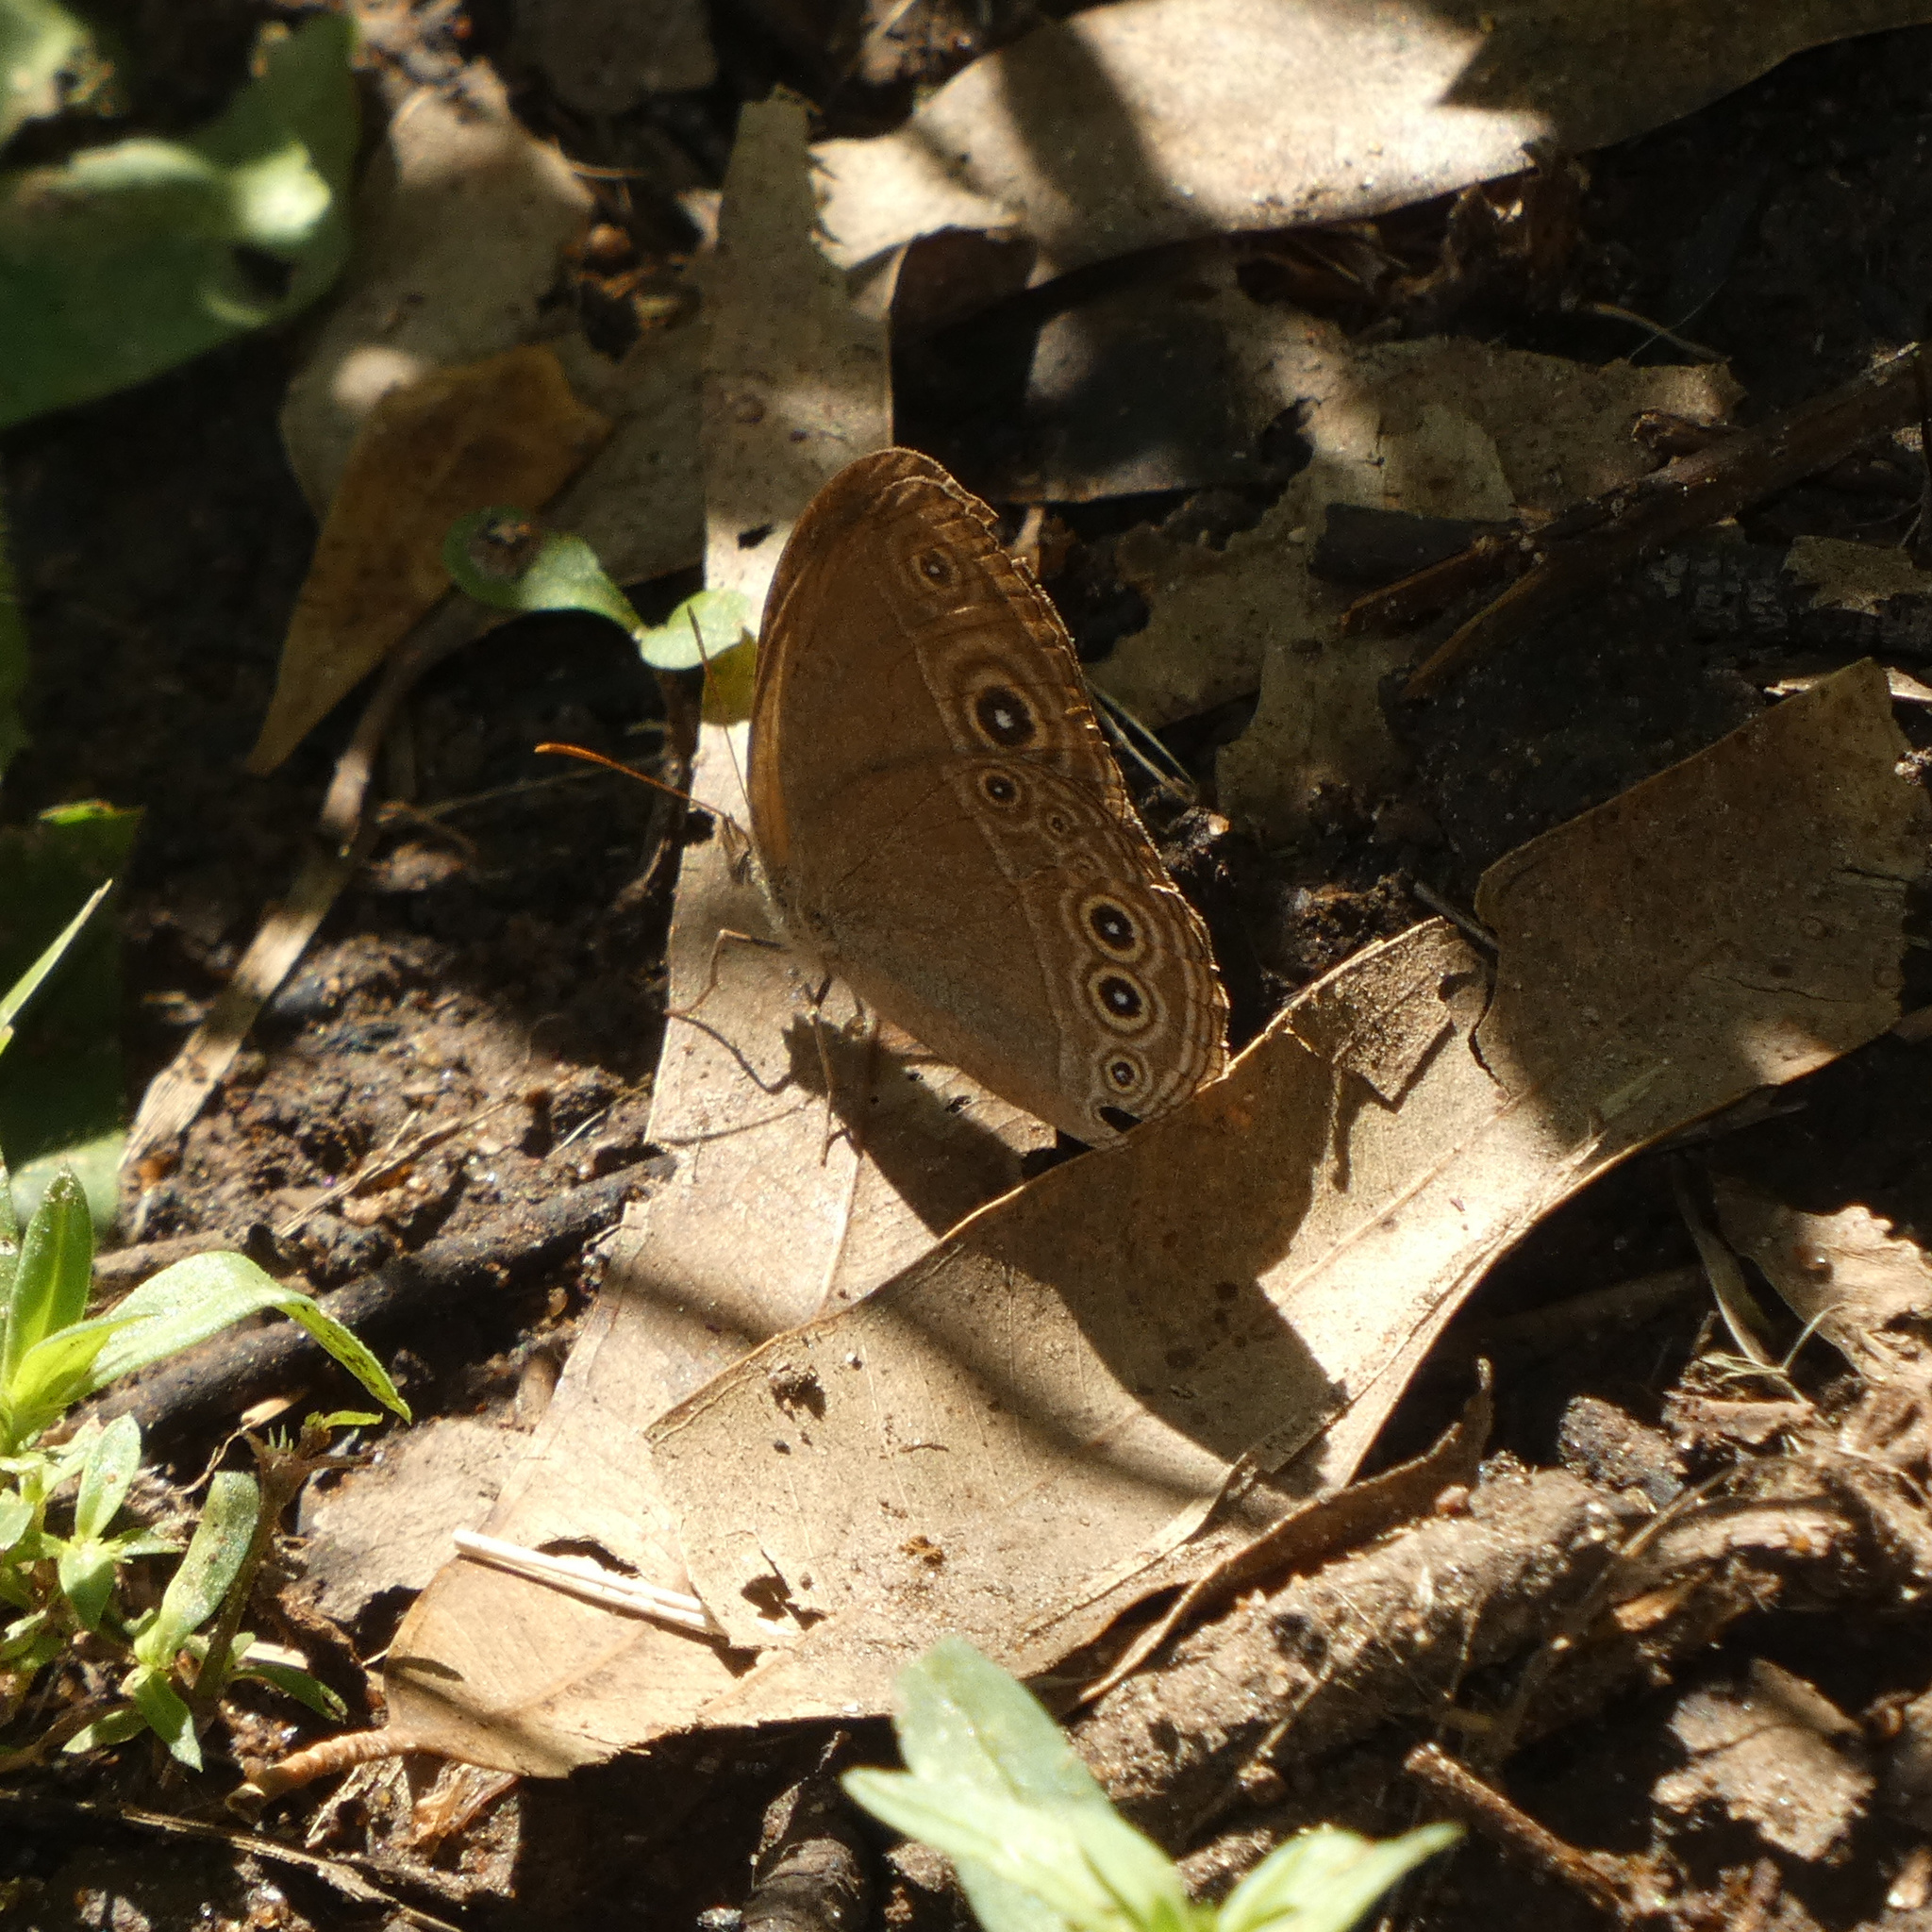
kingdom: Animalia
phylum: Arthropoda
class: Insecta
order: Lepidoptera
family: Nymphalidae
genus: Brakefieldia
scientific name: Brakefieldia simonsii
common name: Pale patroller
